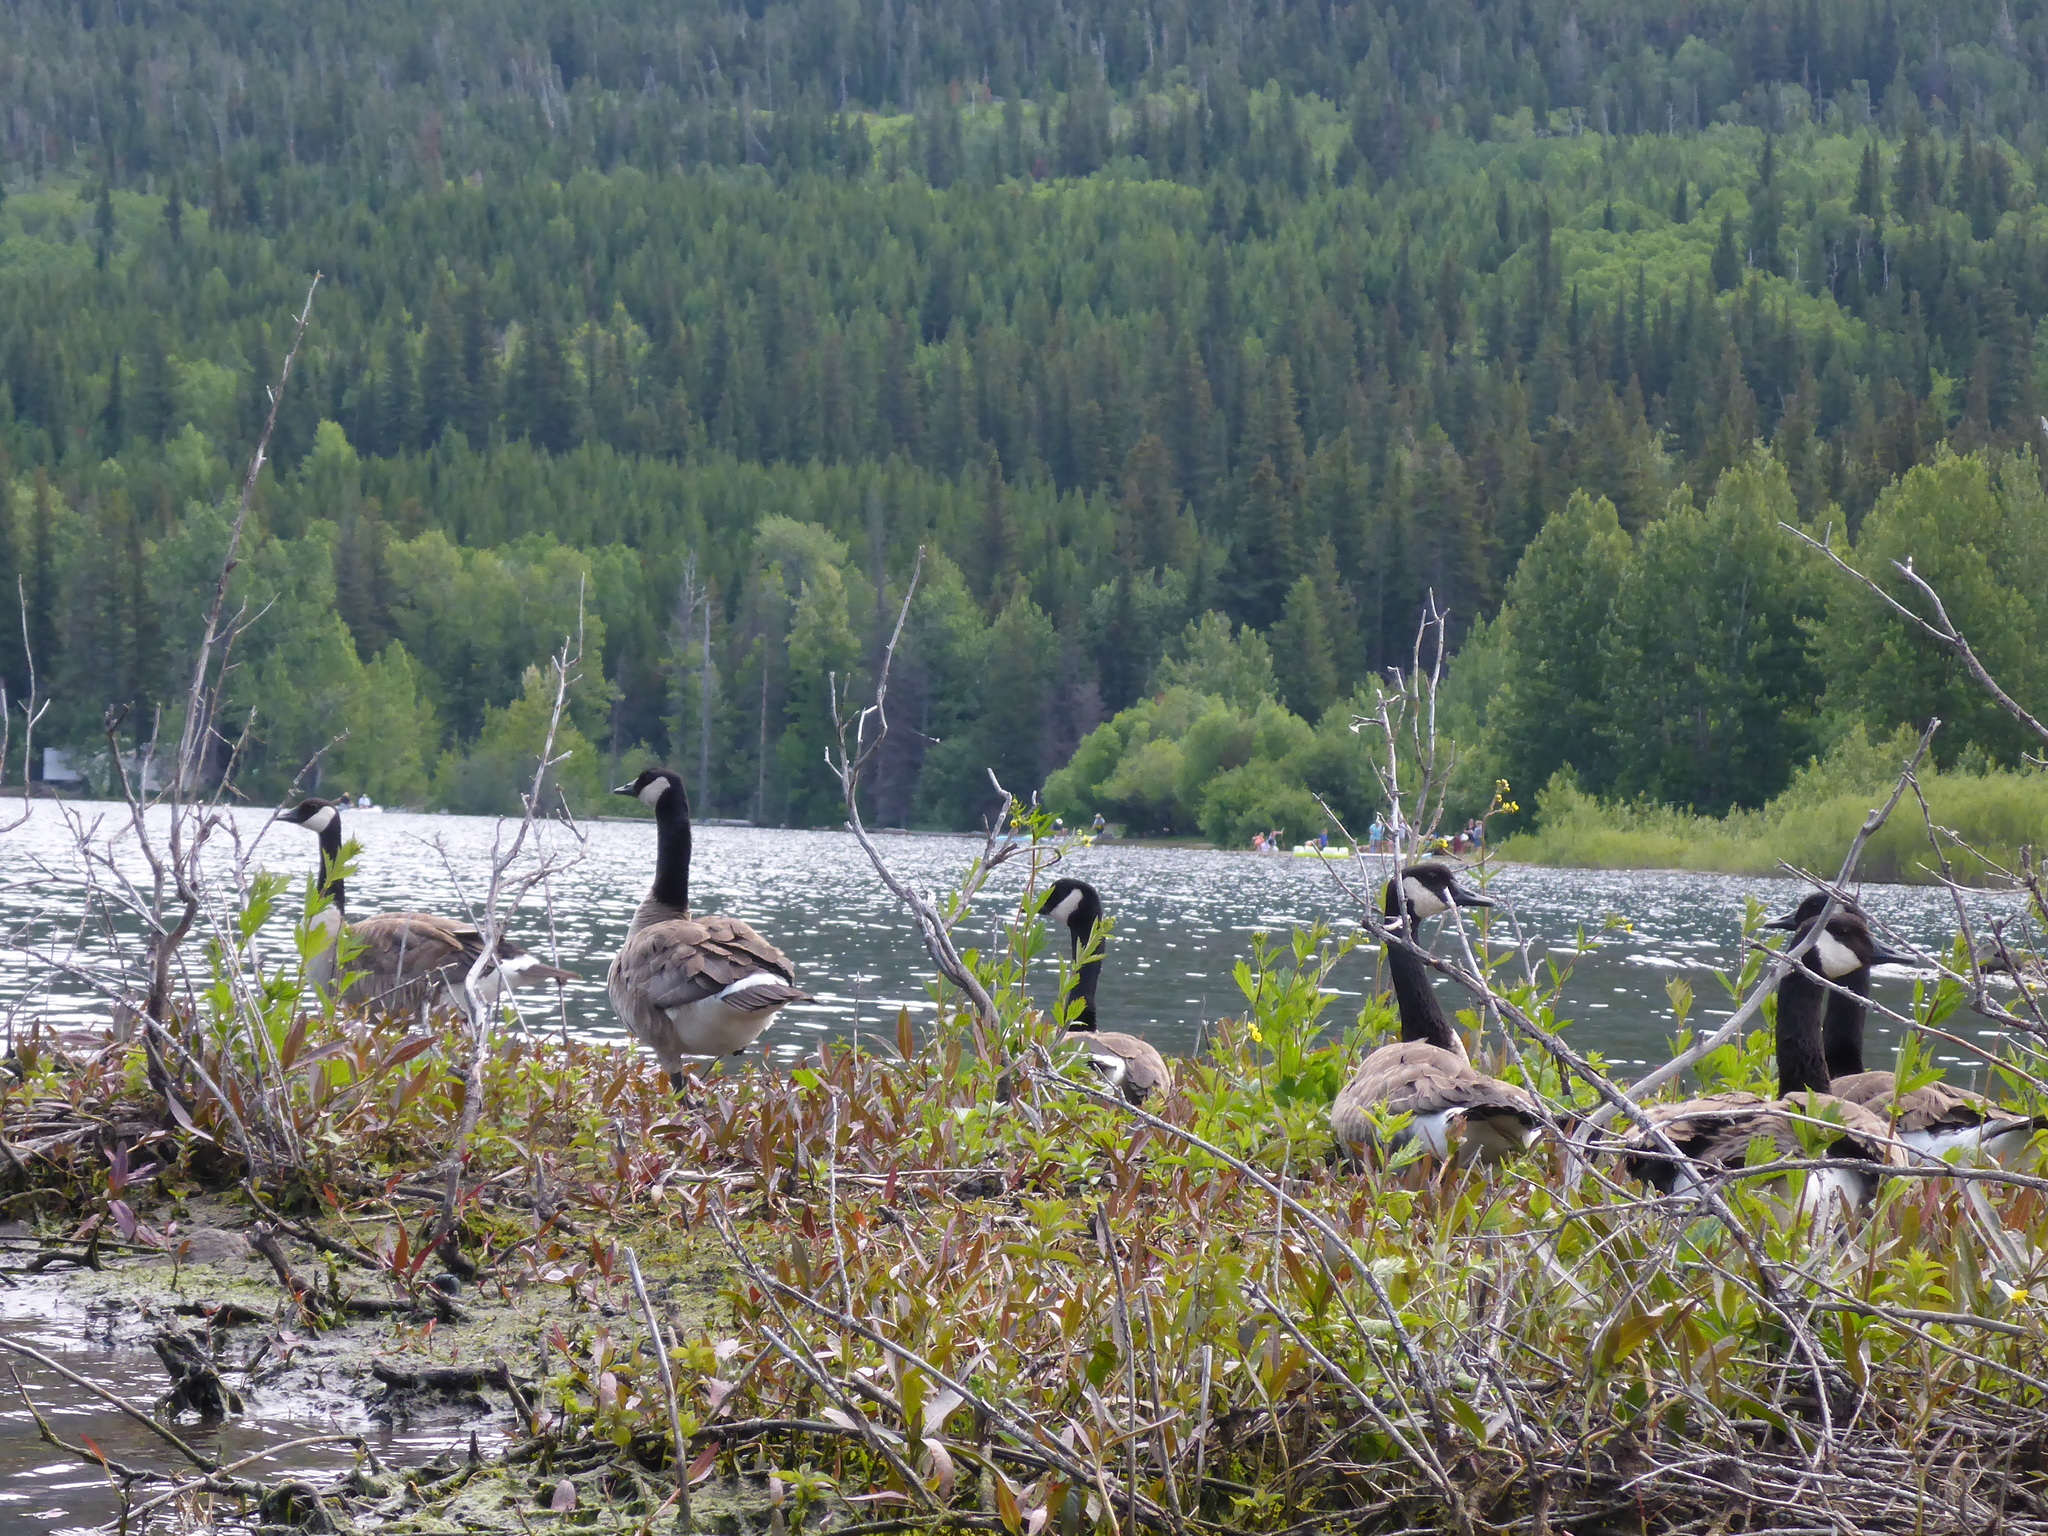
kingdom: Animalia
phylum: Chordata
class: Aves
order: Anseriformes
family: Anatidae
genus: Branta
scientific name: Branta canadensis
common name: Canada goose
